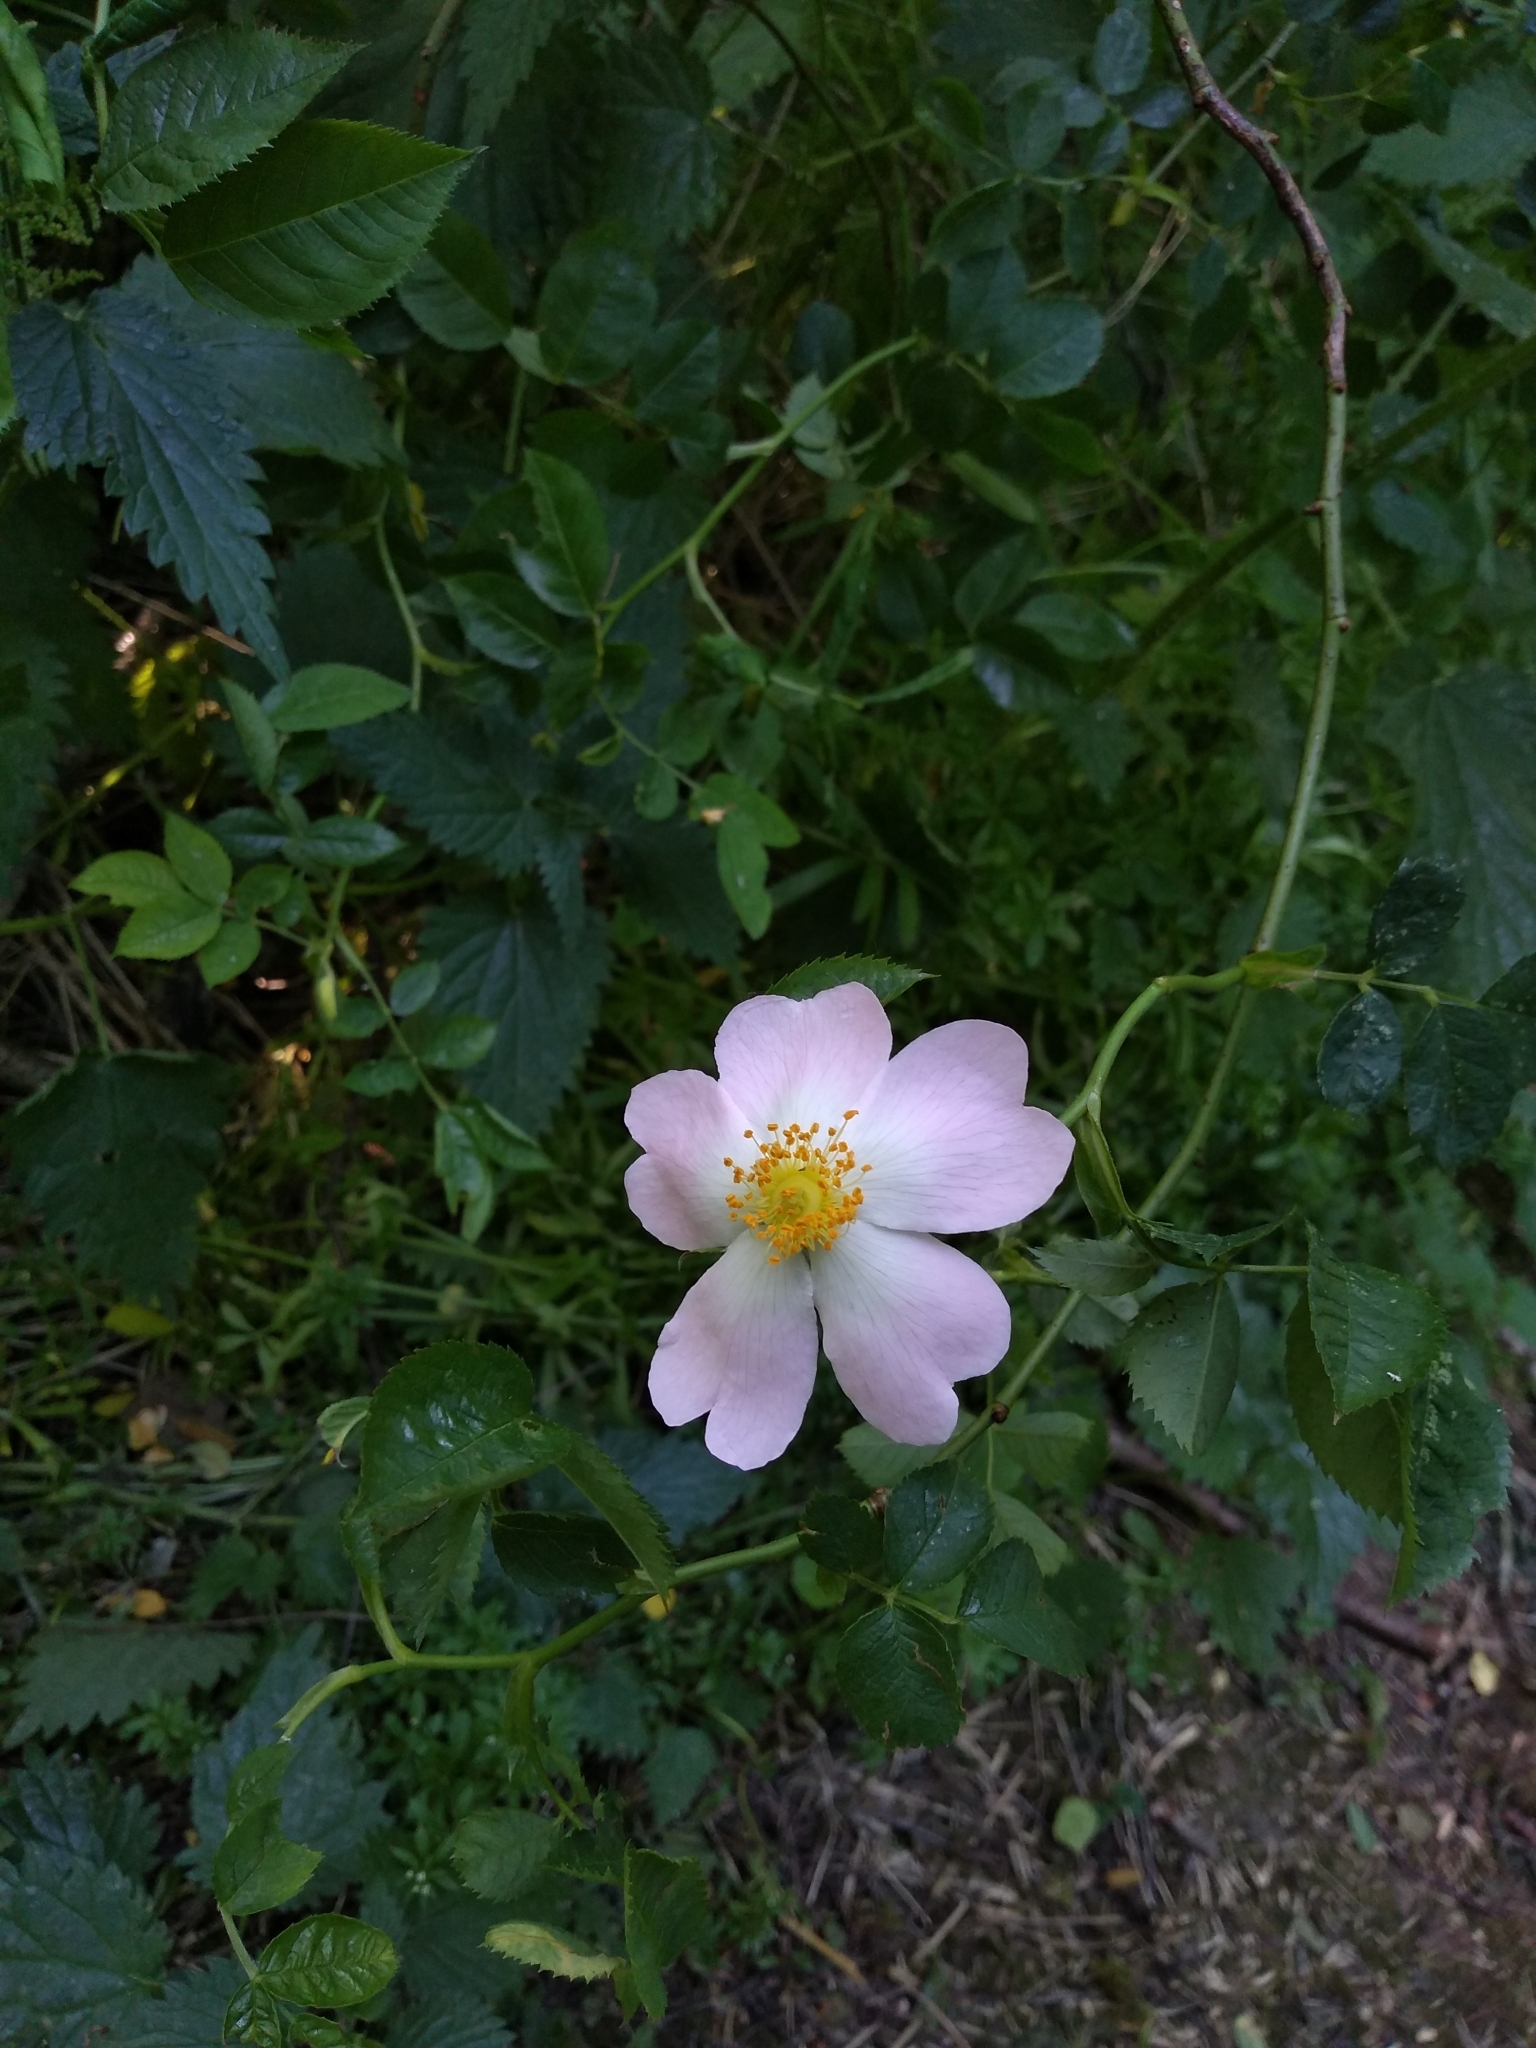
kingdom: Plantae
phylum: Tracheophyta
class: Magnoliopsida
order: Rosales
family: Rosaceae
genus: Rosa
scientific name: Rosa canina
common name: Dog rose
